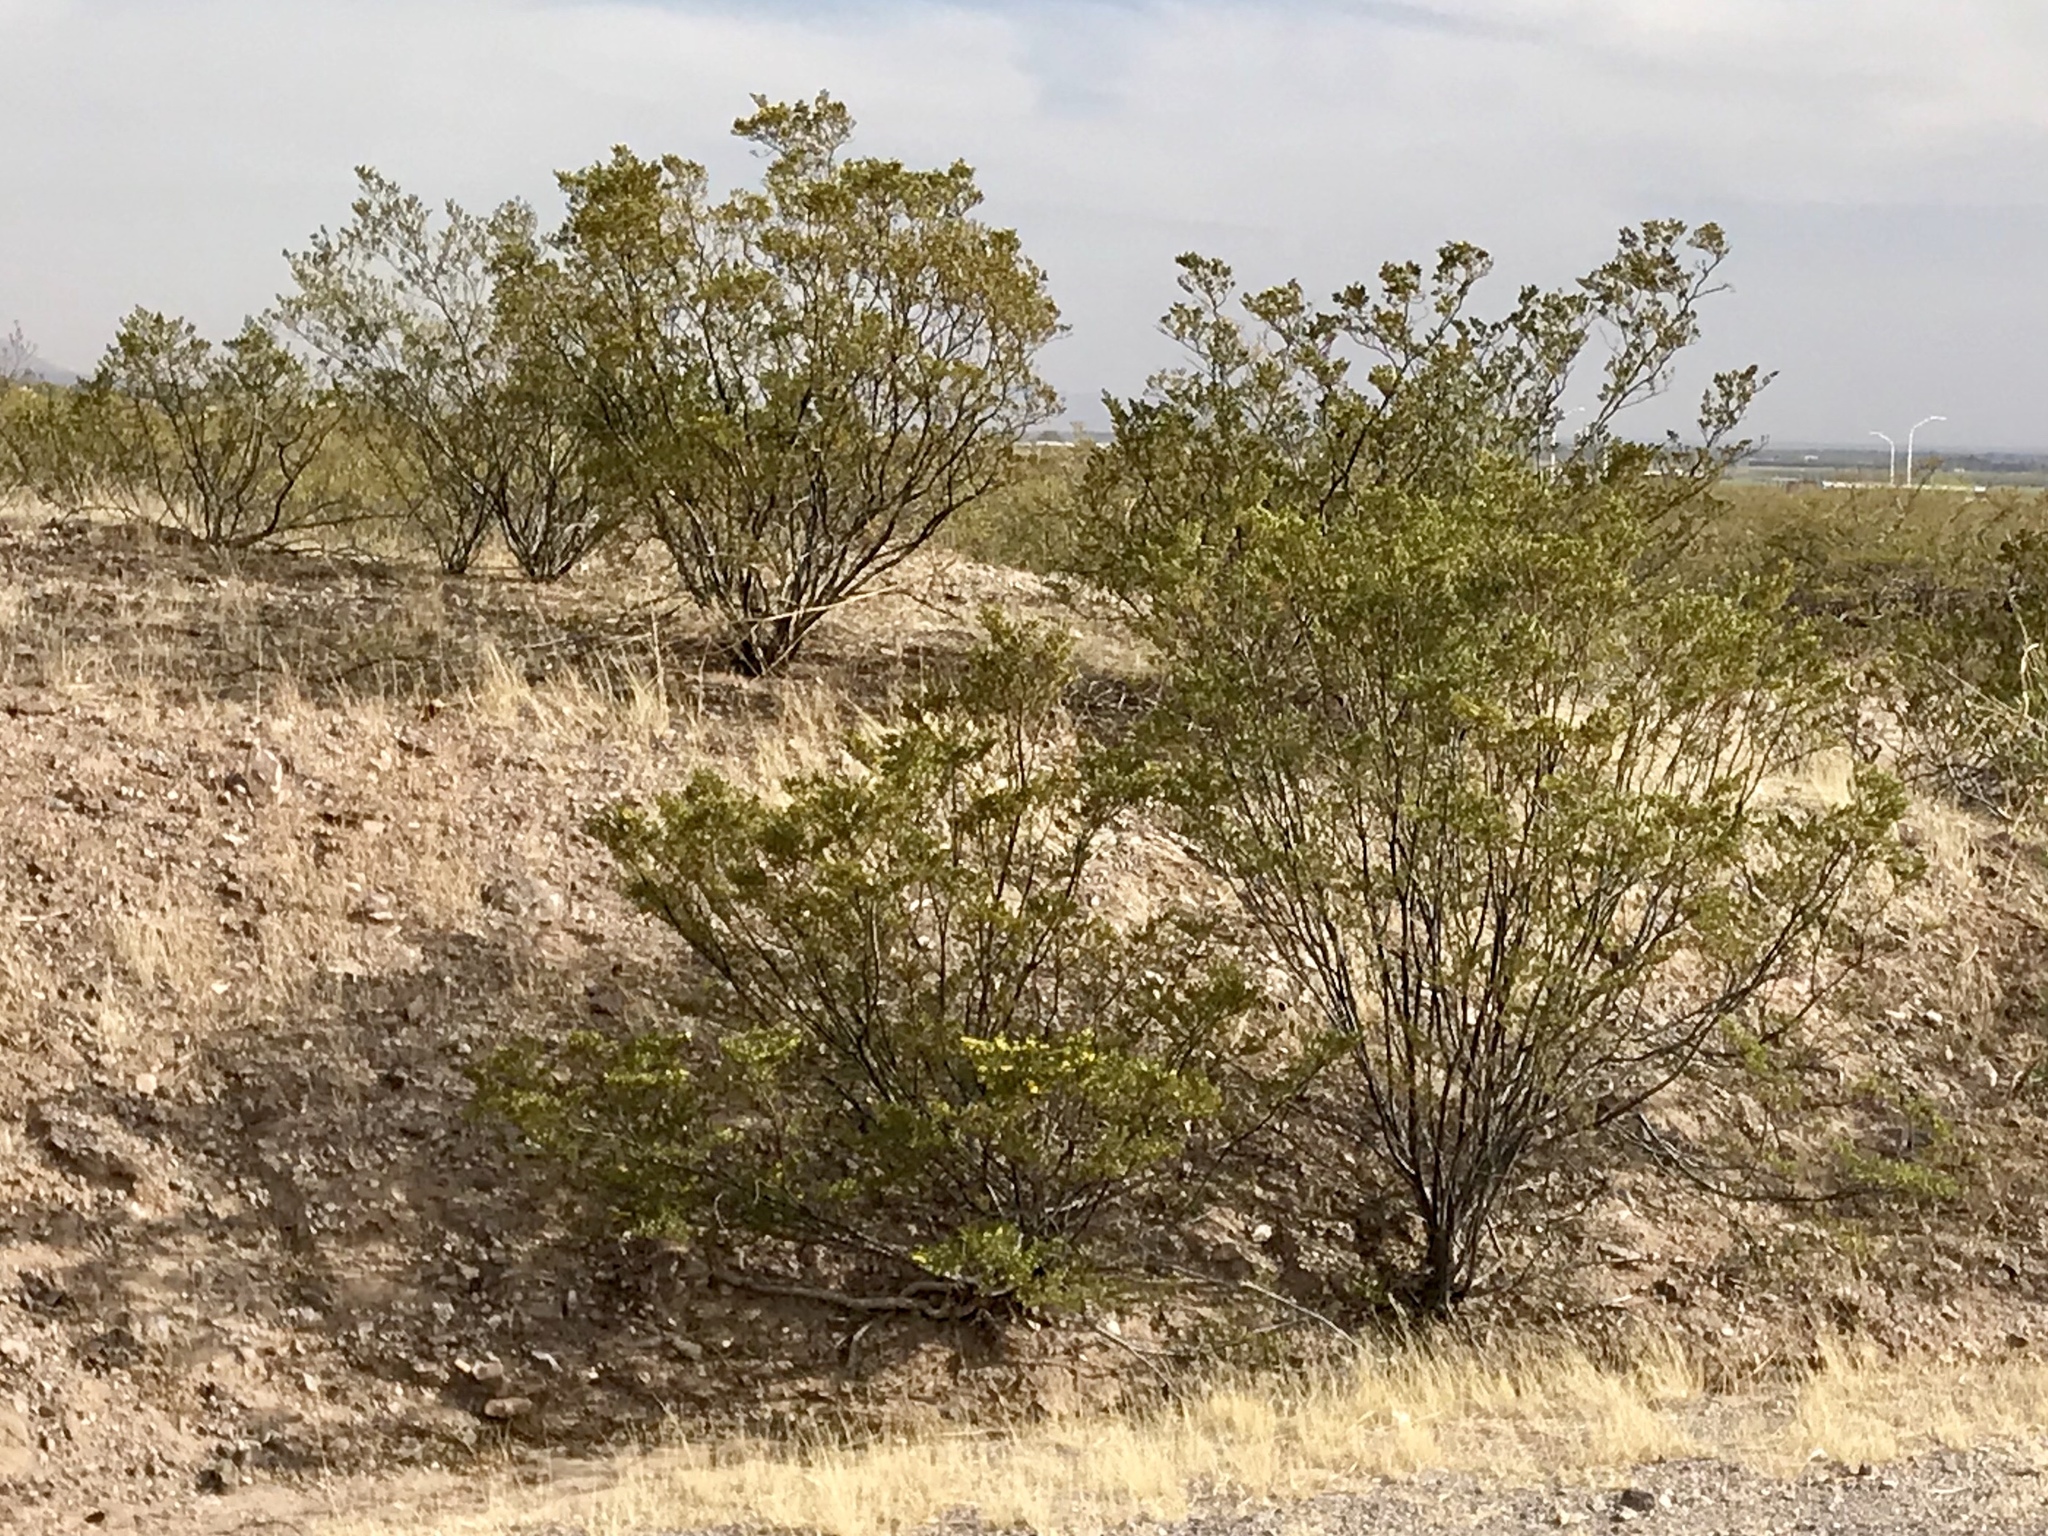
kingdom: Plantae
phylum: Tracheophyta
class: Magnoliopsida
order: Zygophyllales
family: Zygophyllaceae
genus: Larrea
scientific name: Larrea tridentata
